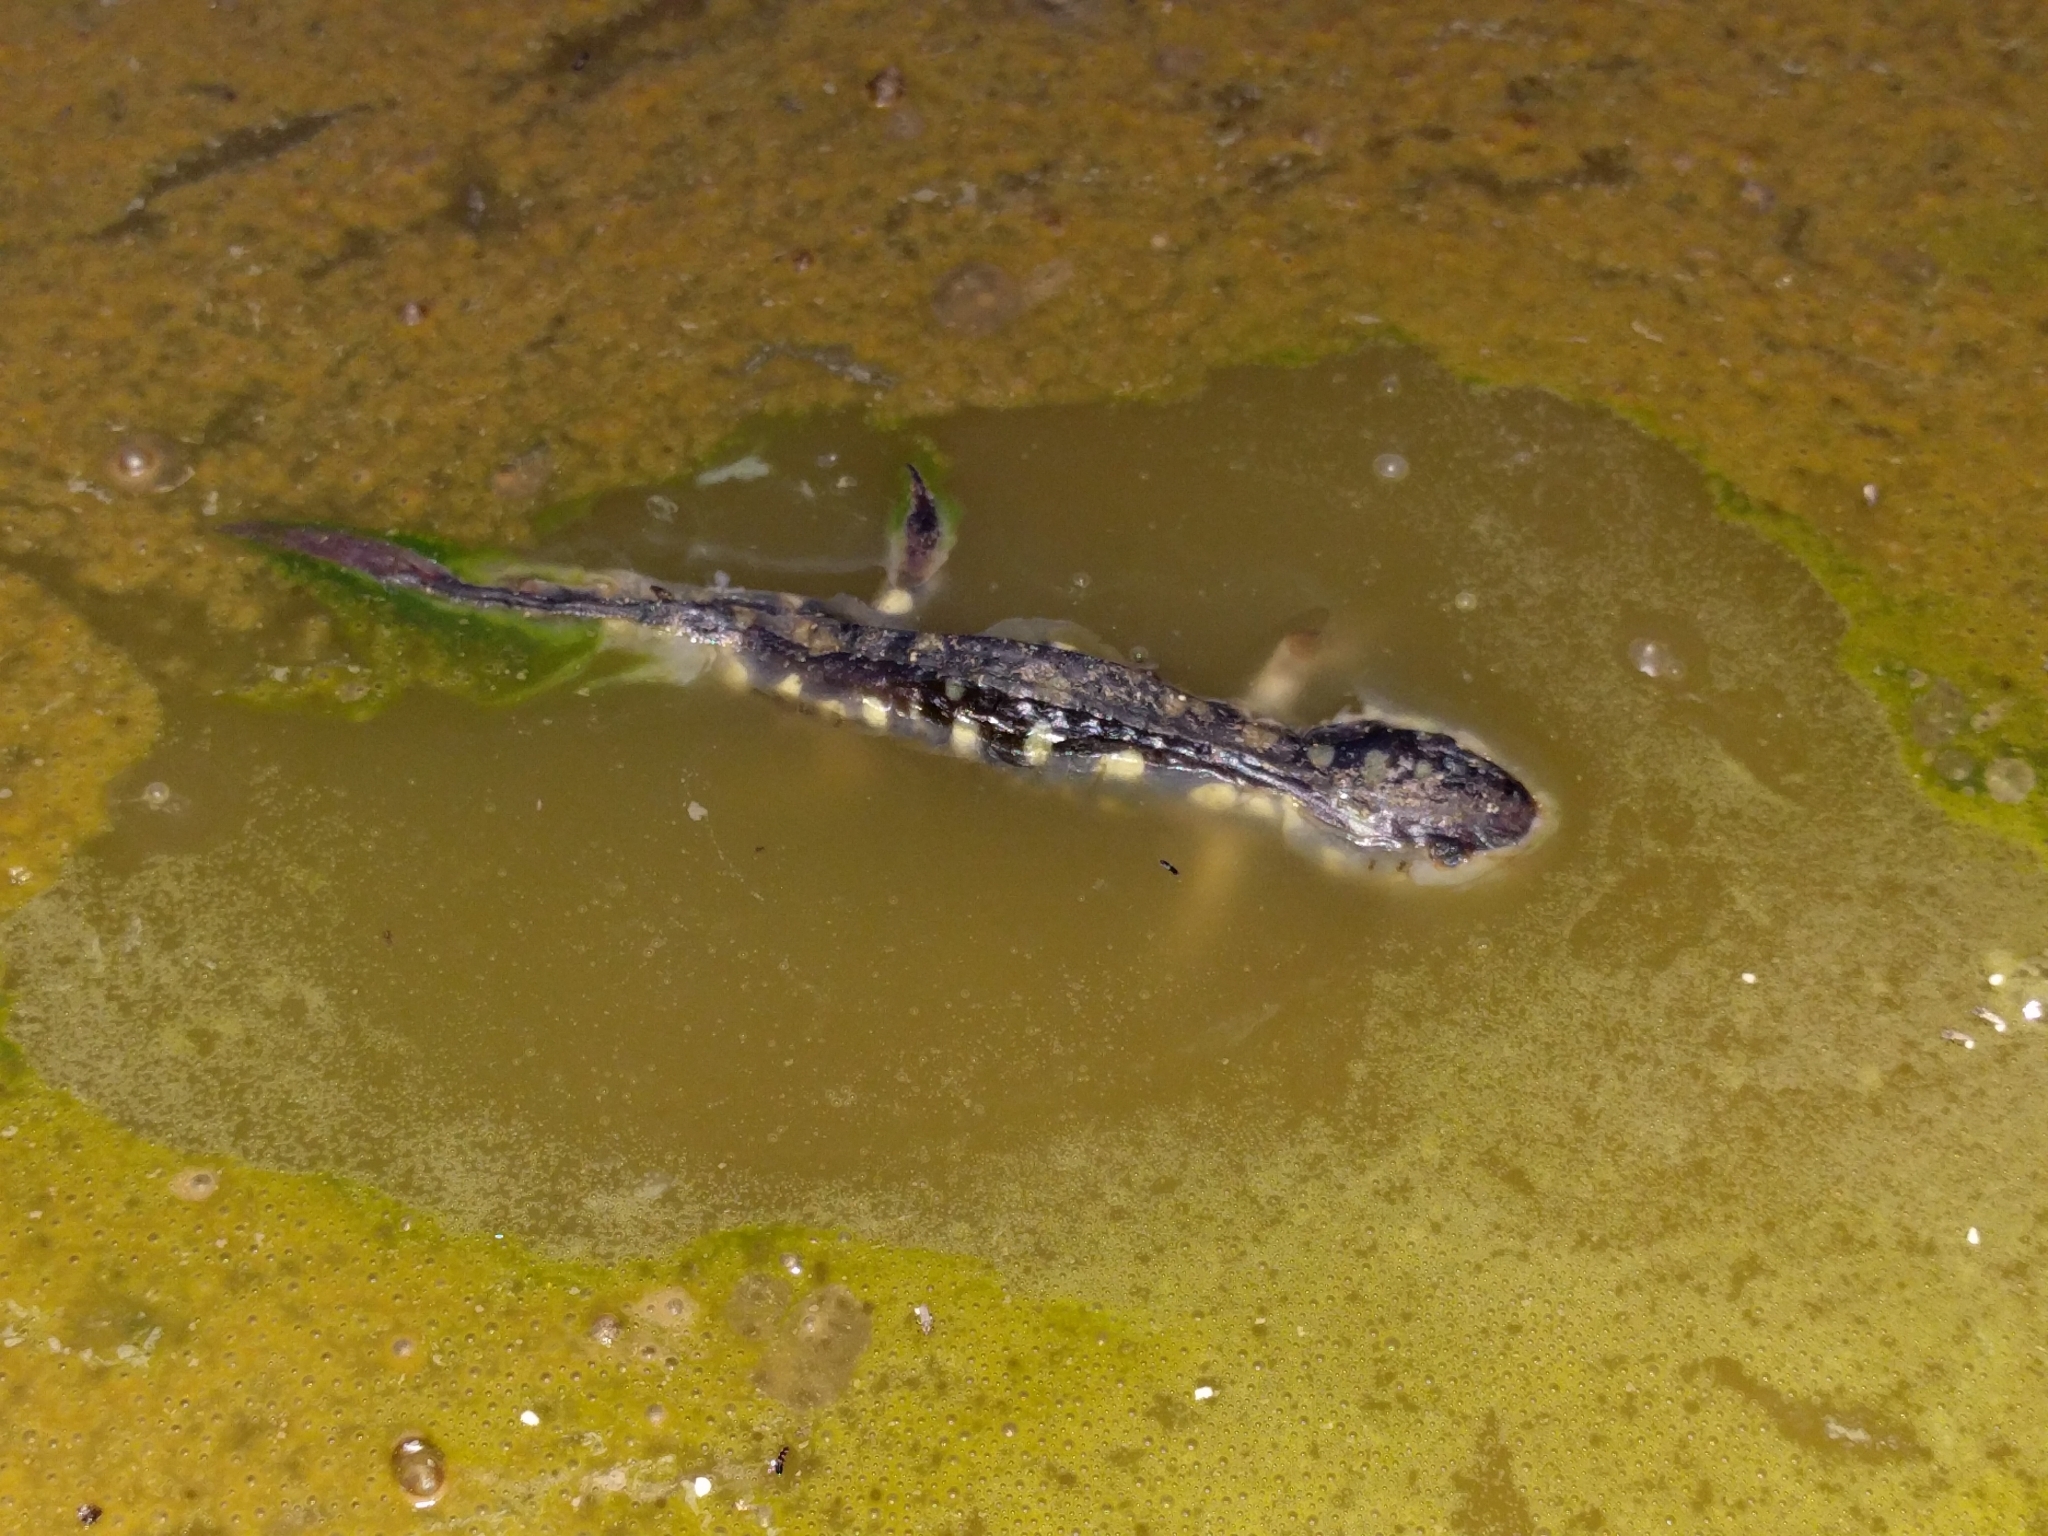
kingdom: Animalia
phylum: Chordata
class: Amphibia
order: Caudata
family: Ambystomatidae
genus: Ambystoma
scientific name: Ambystoma californiense
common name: California tiger salamander
